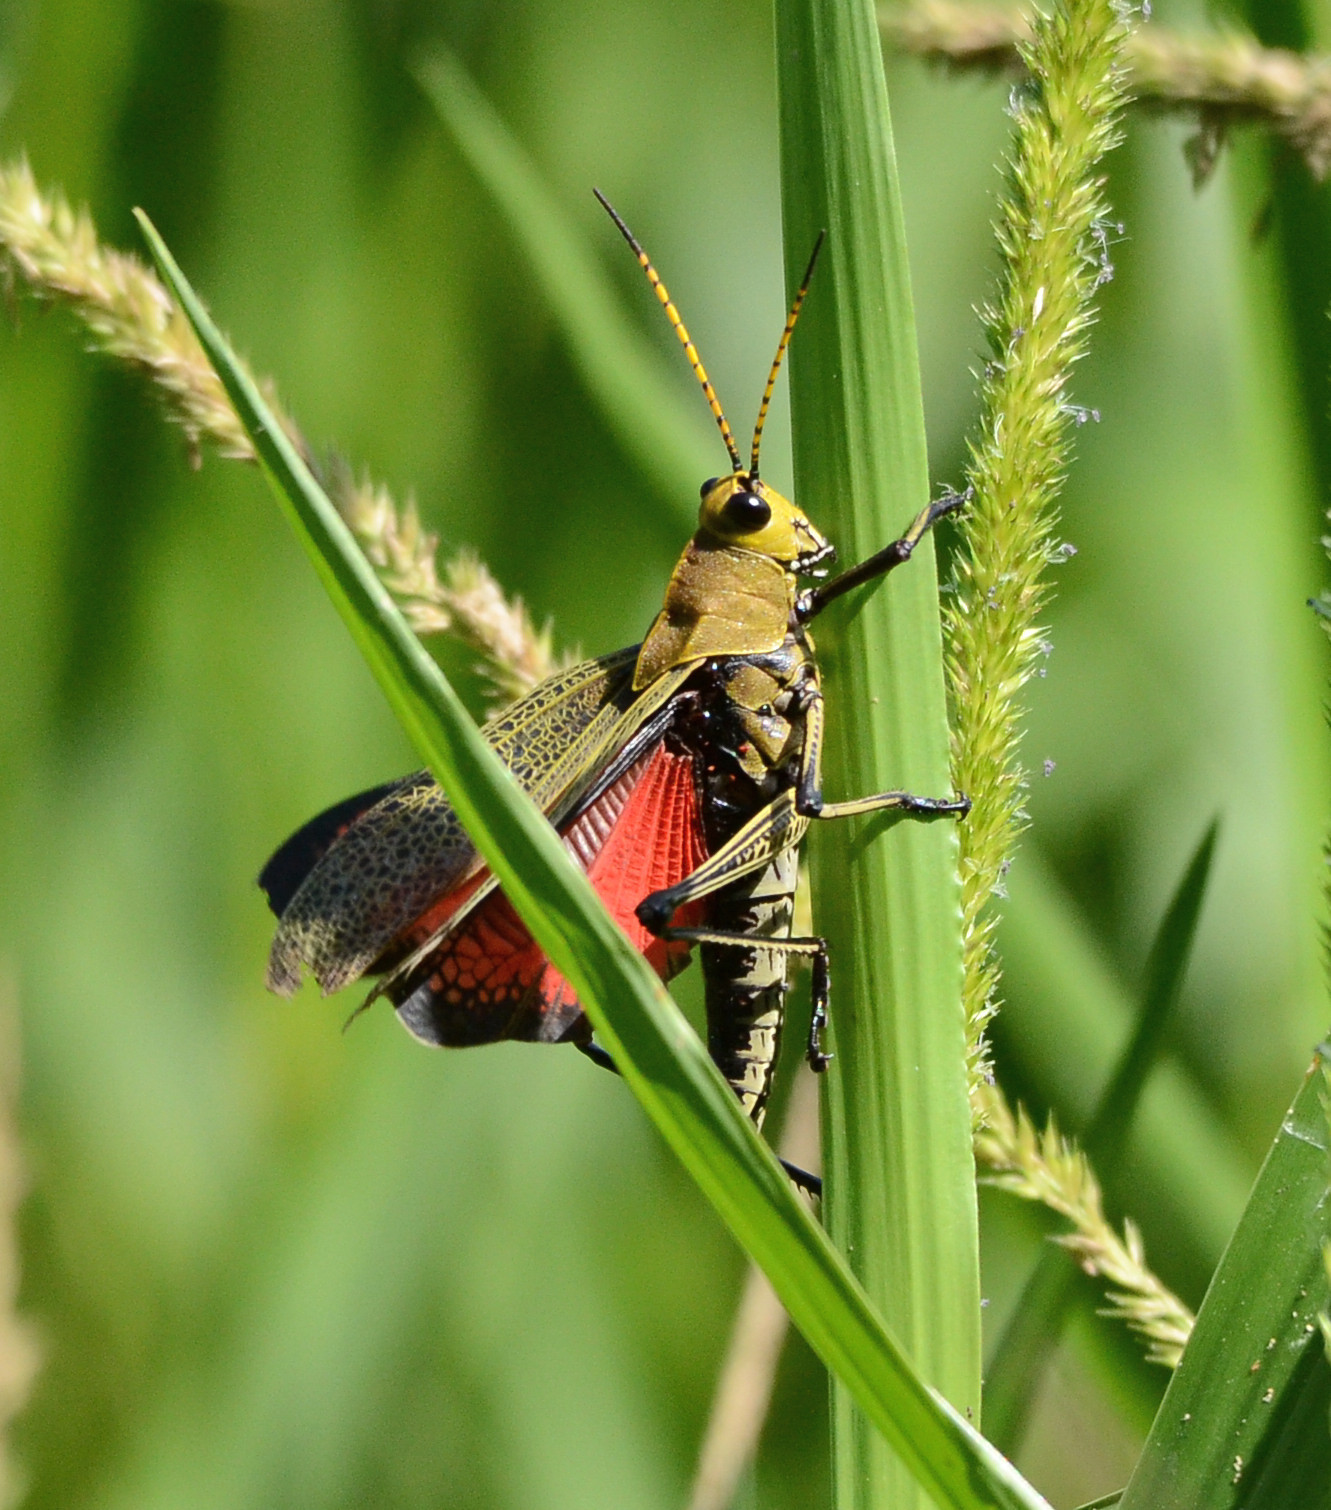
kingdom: Animalia
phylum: Arthropoda
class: Insecta
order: Orthoptera
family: Romaleidae
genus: Romalea
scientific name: Romalea
